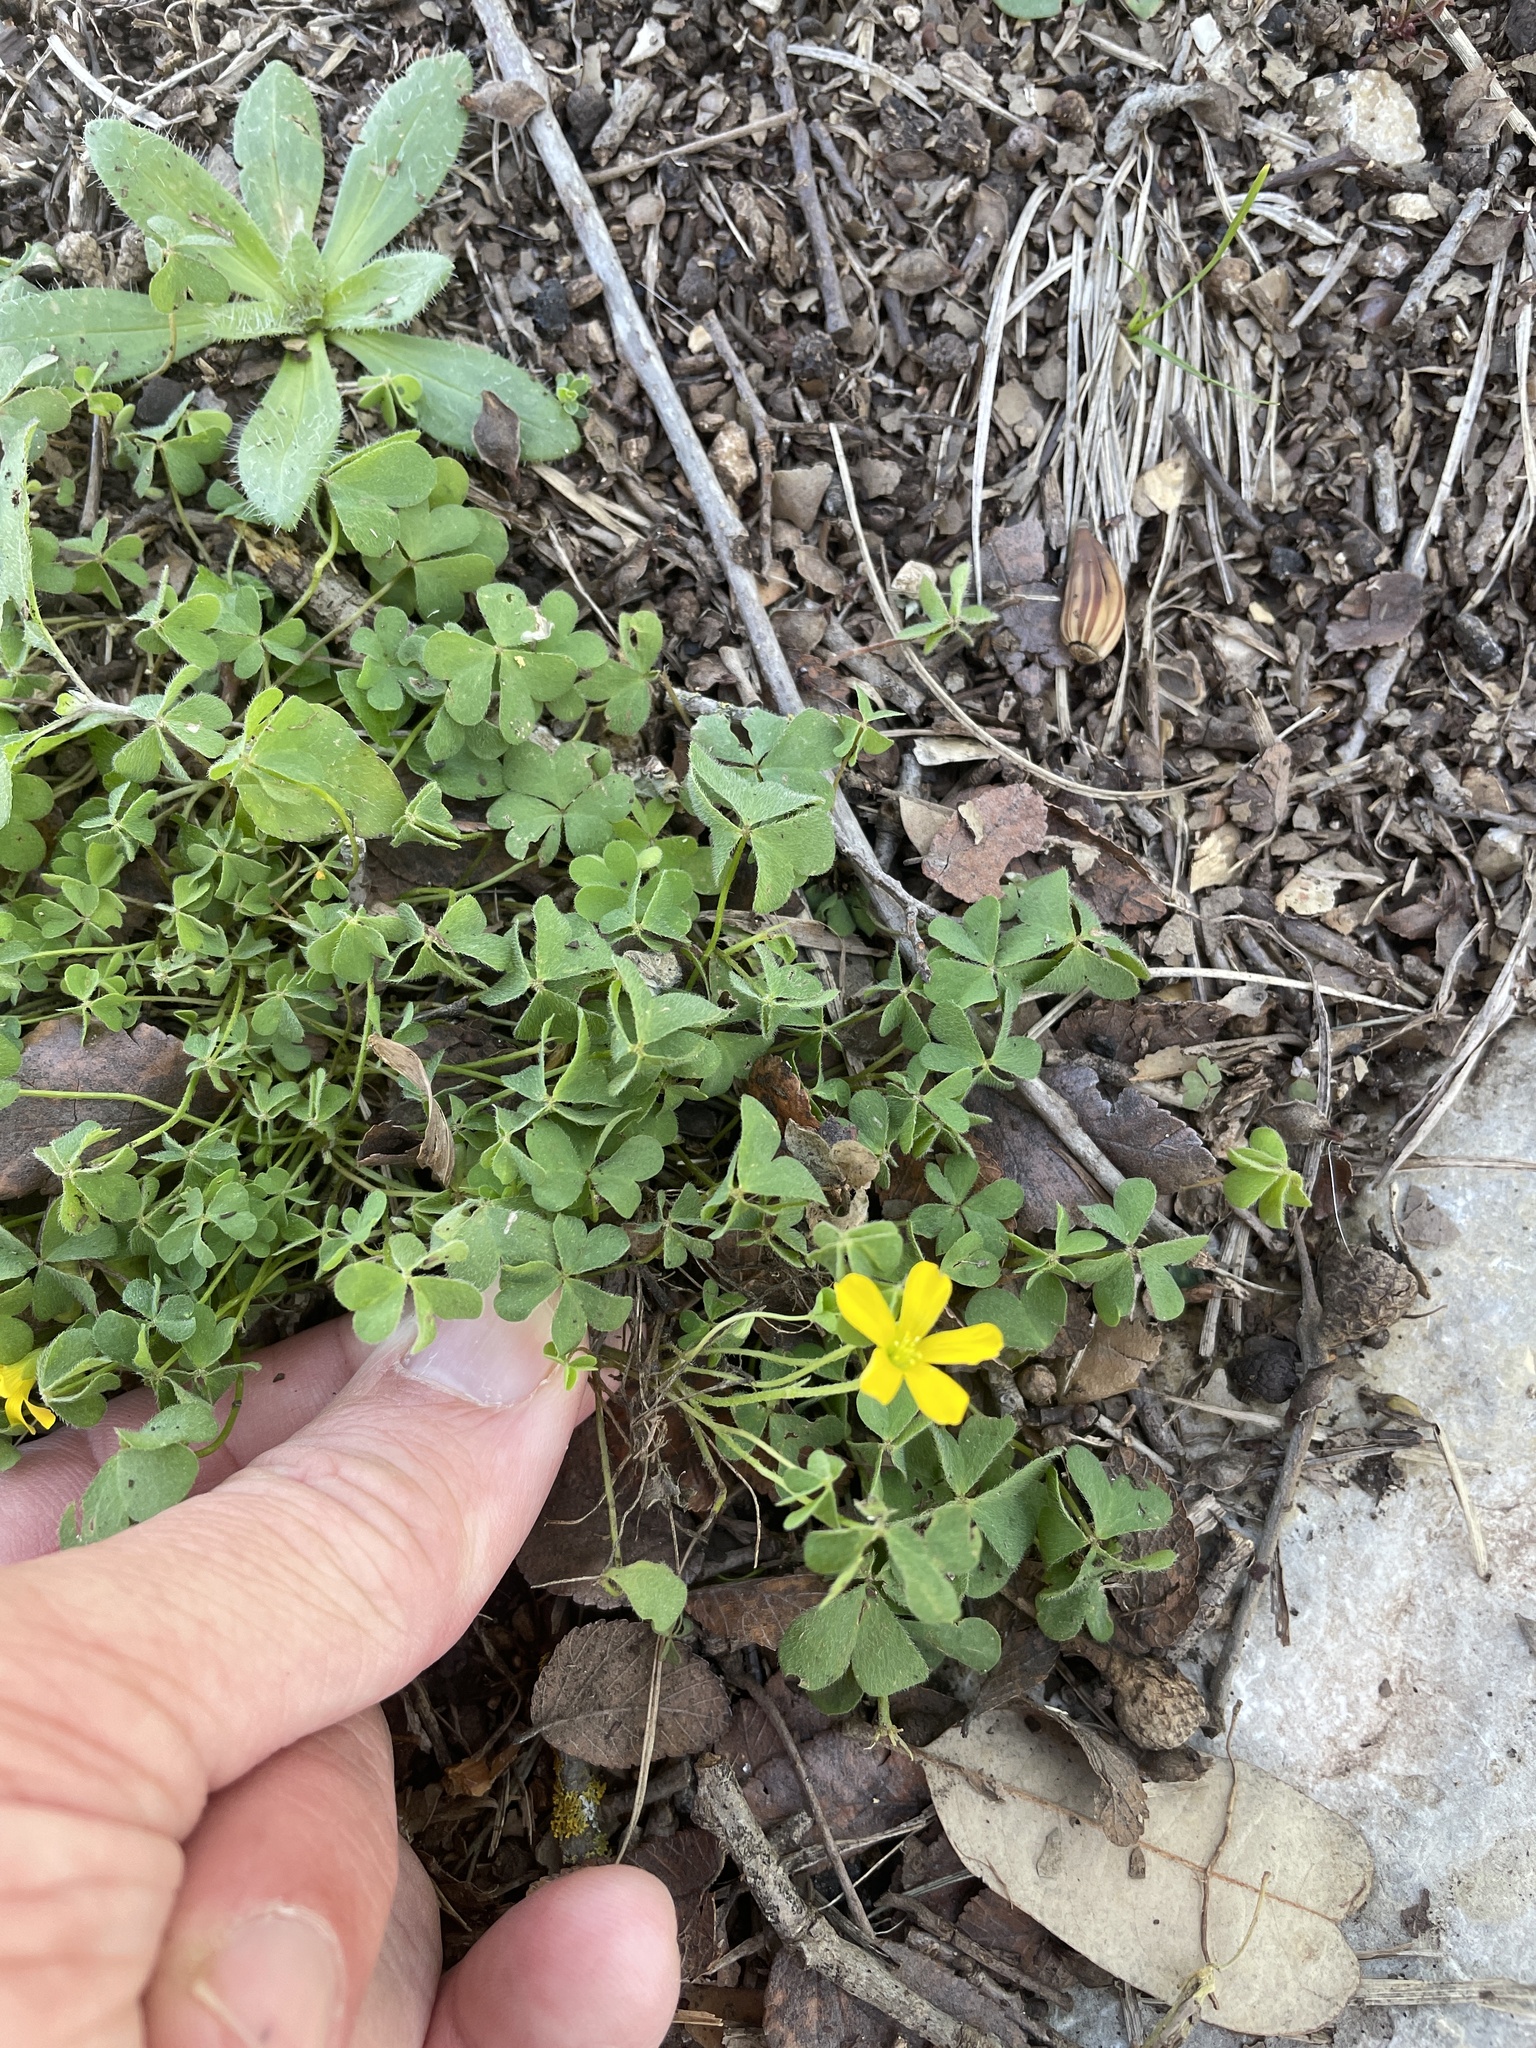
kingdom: Plantae
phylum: Tracheophyta
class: Magnoliopsida
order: Oxalidales
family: Oxalidaceae
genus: Oxalis
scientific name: Oxalis dillenii
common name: Sussex yellow-sorrel
